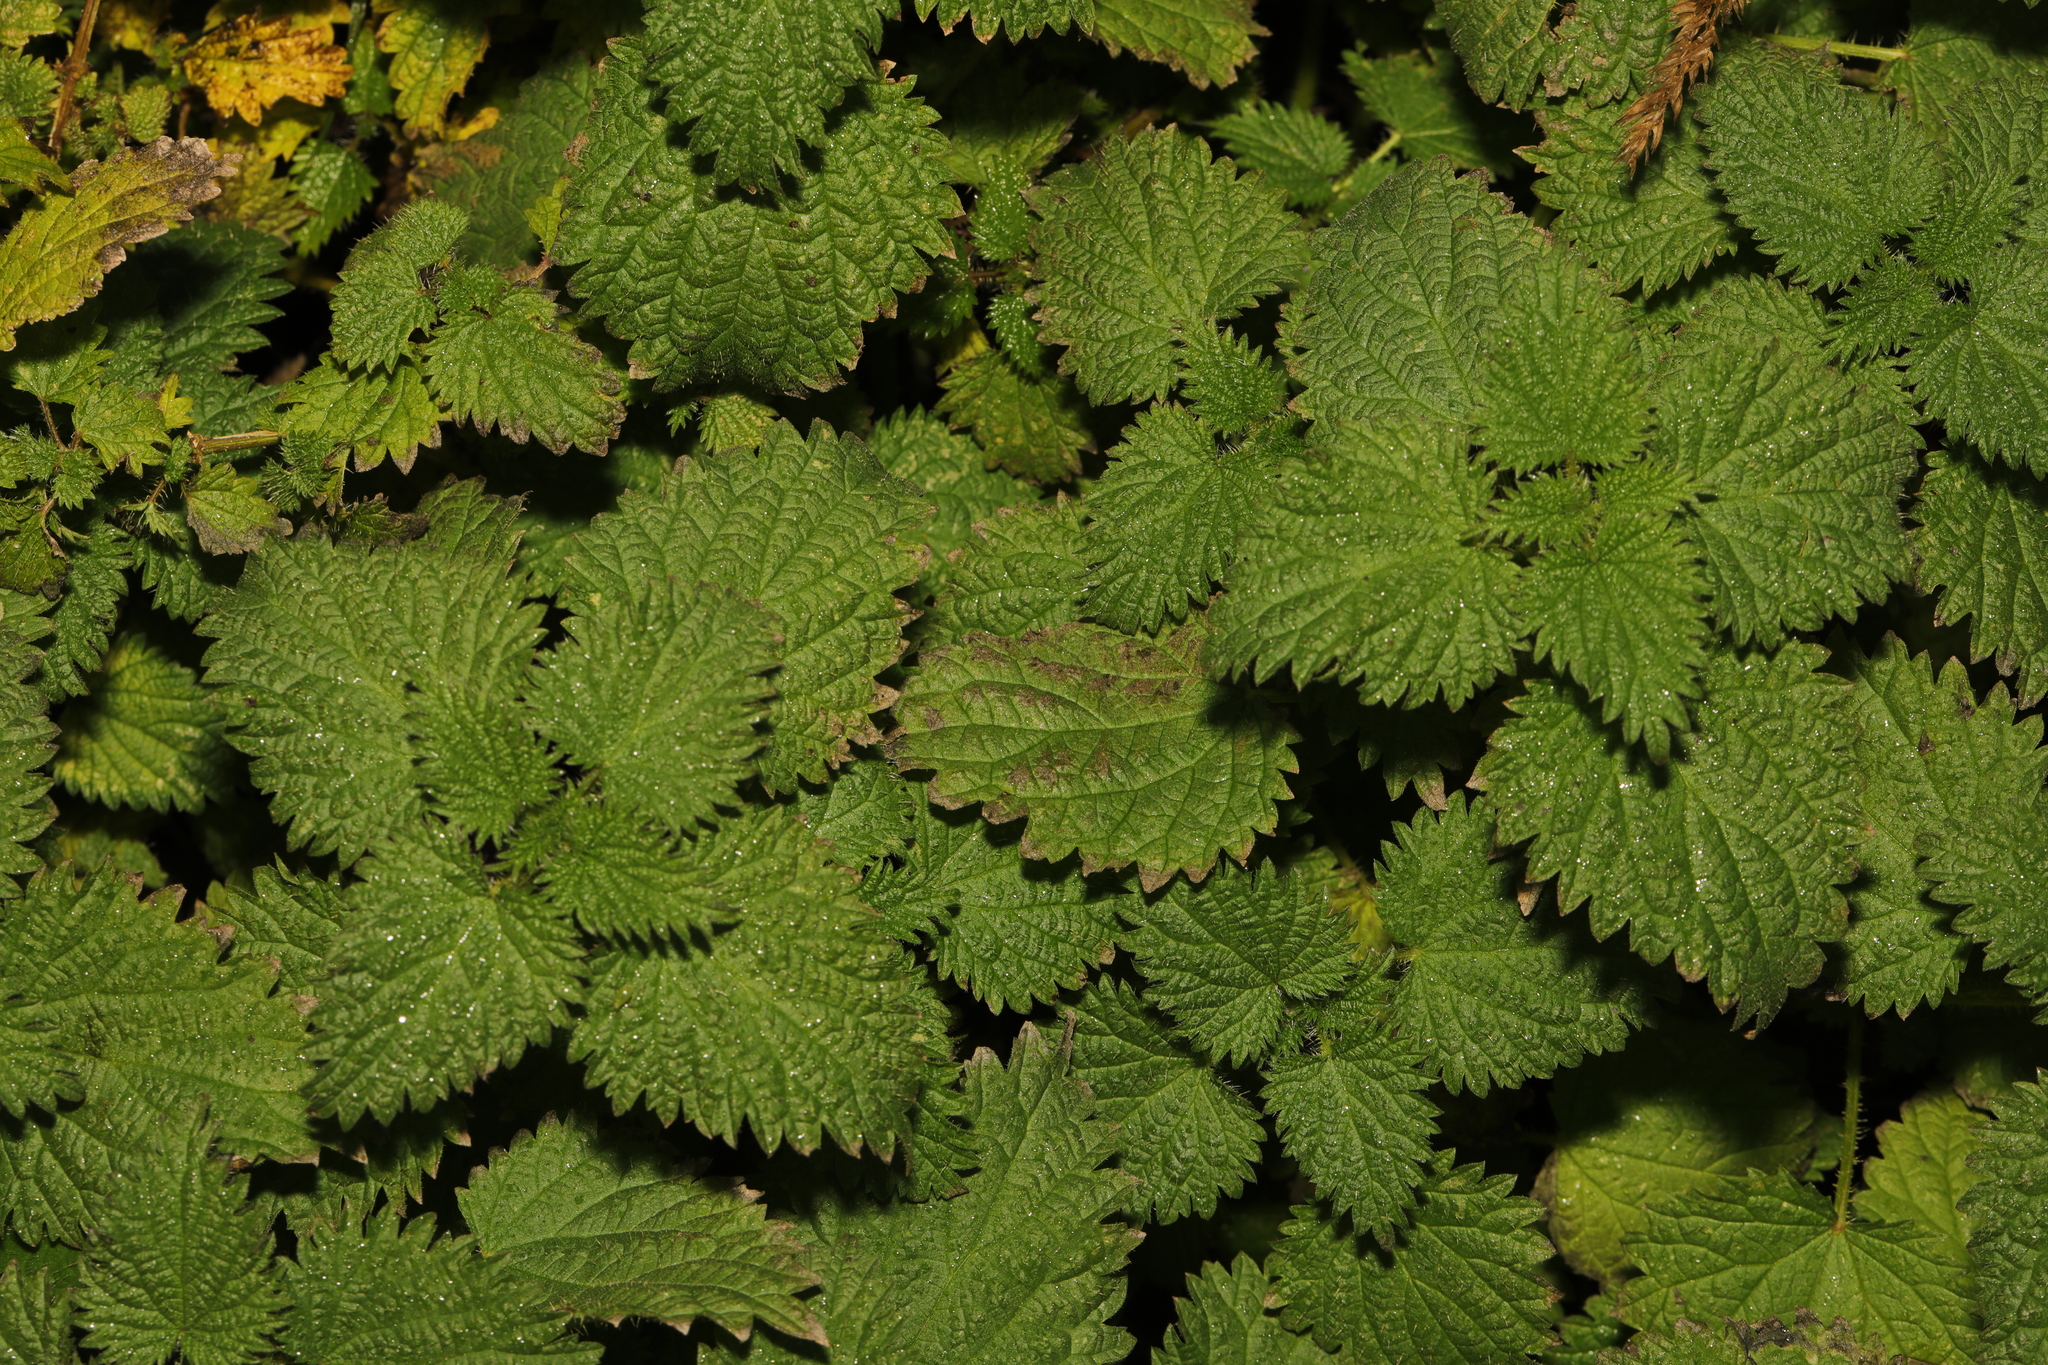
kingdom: Plantae
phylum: Tracheophyta
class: Magnoliopsida
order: Rosales
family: Urticaceae
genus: Urtica
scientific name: Urtica dioica
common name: Common nettle
